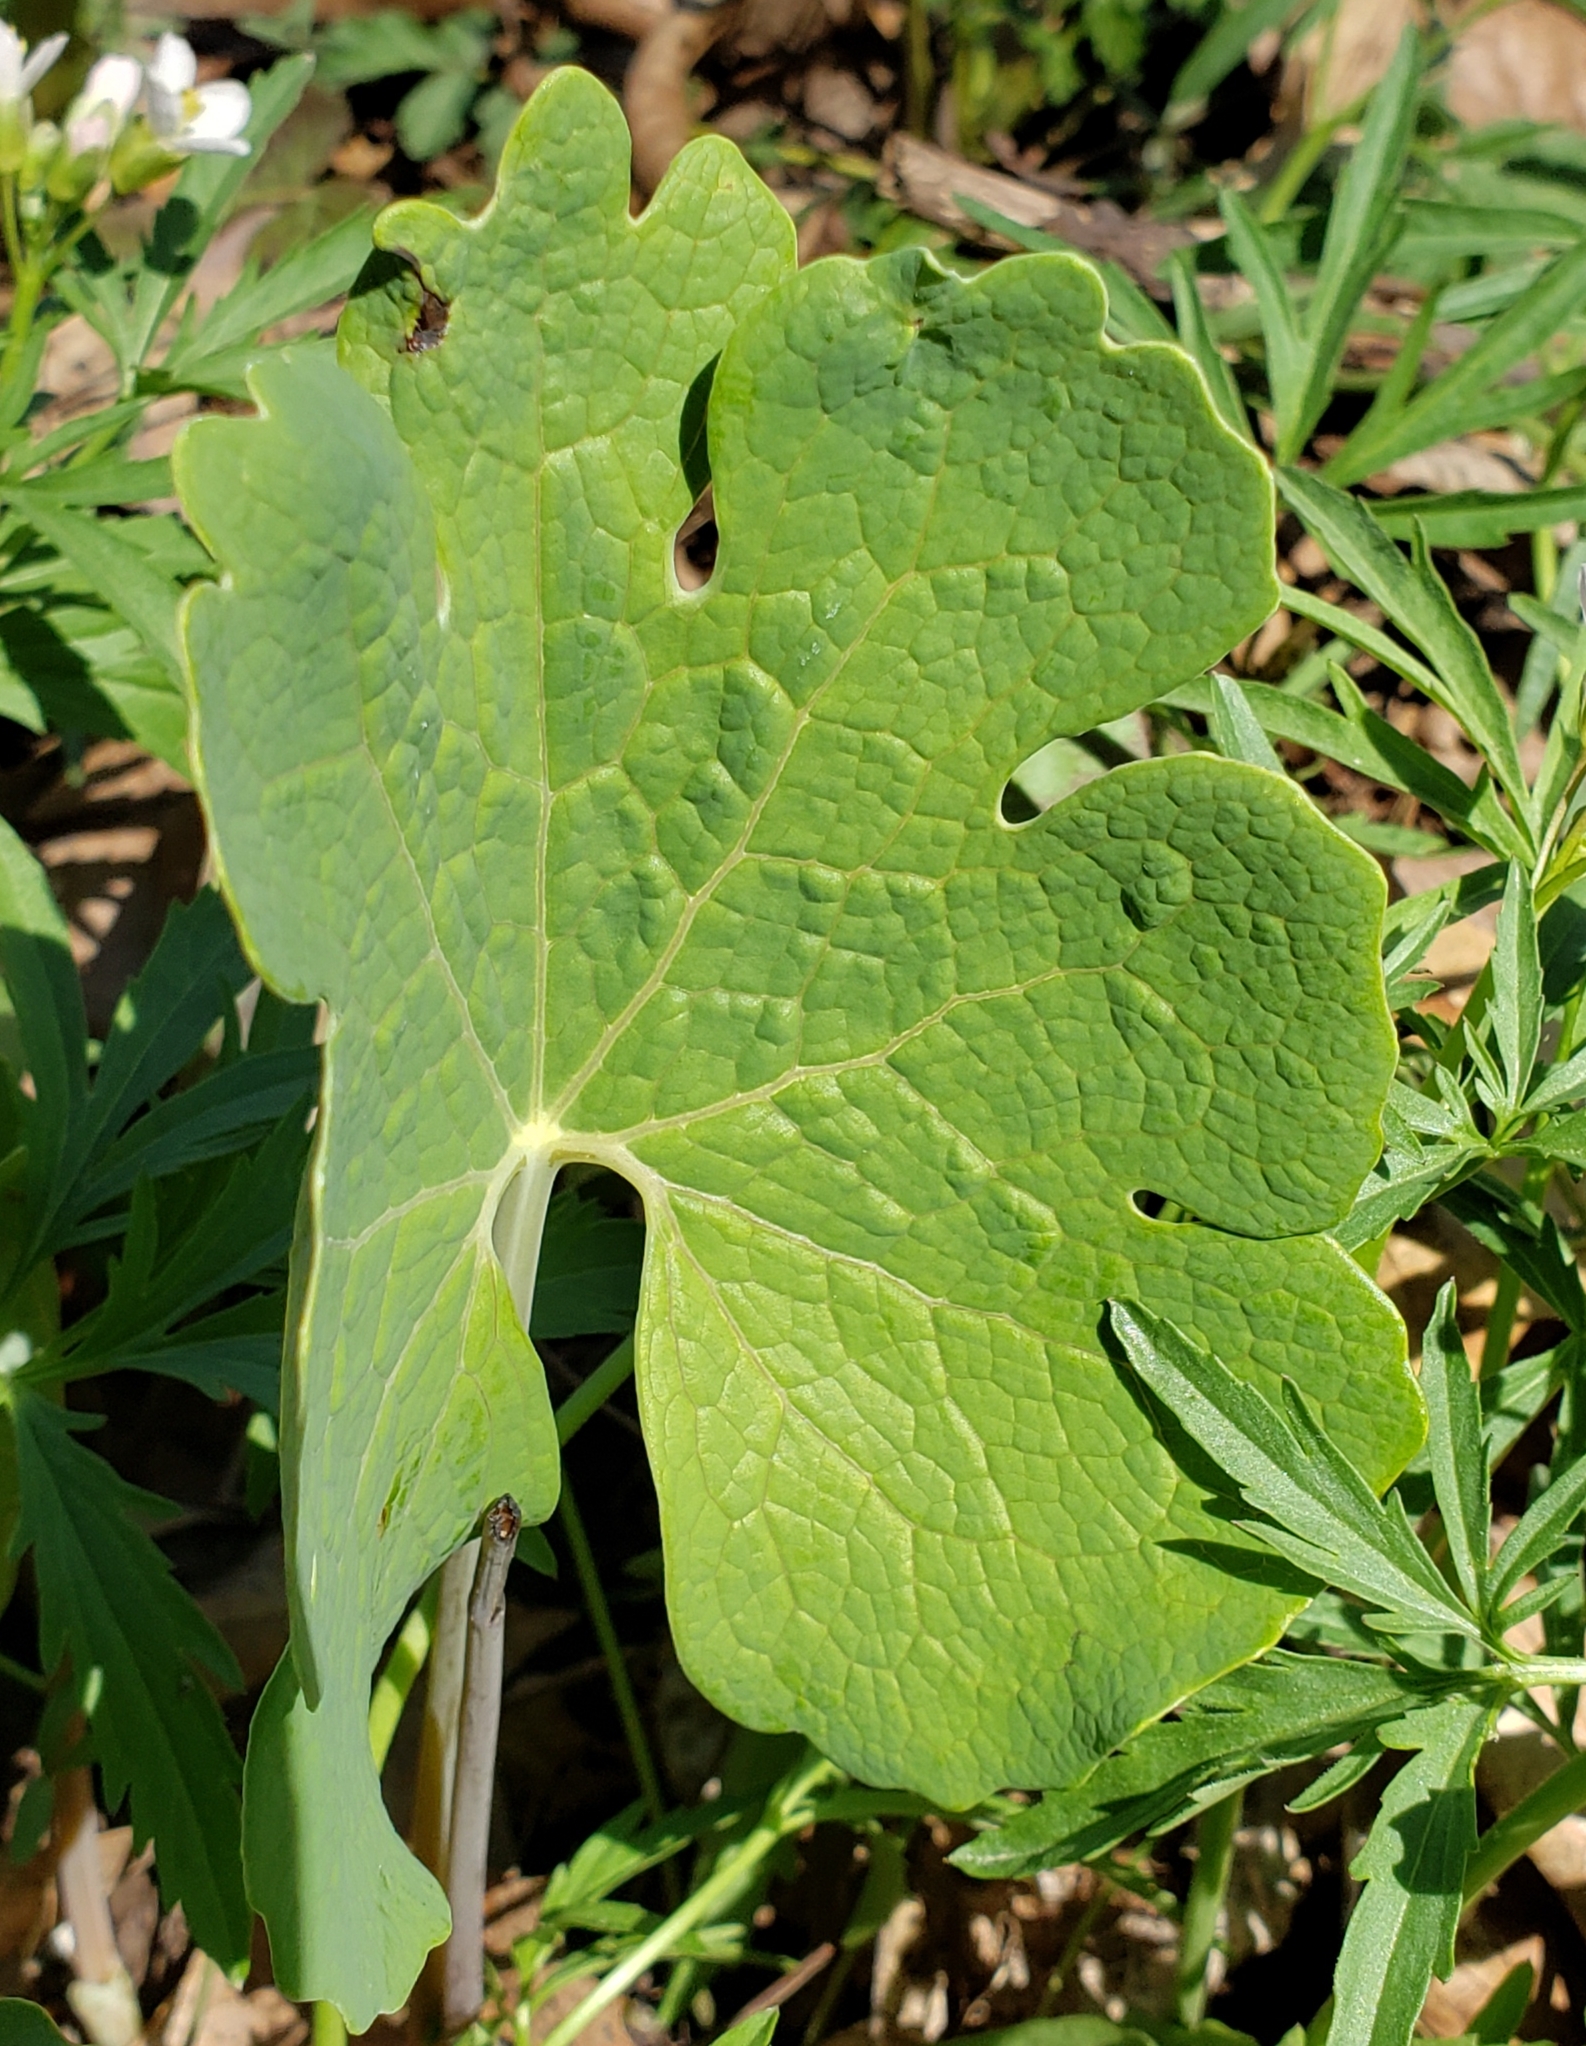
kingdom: Plantae
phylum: Tracheophyta
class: Magnoliopsida
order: Ranunculales
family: Papaveraceae
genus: Sanguinaria
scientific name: Sanguinaria canadensis
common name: Bloodroot
